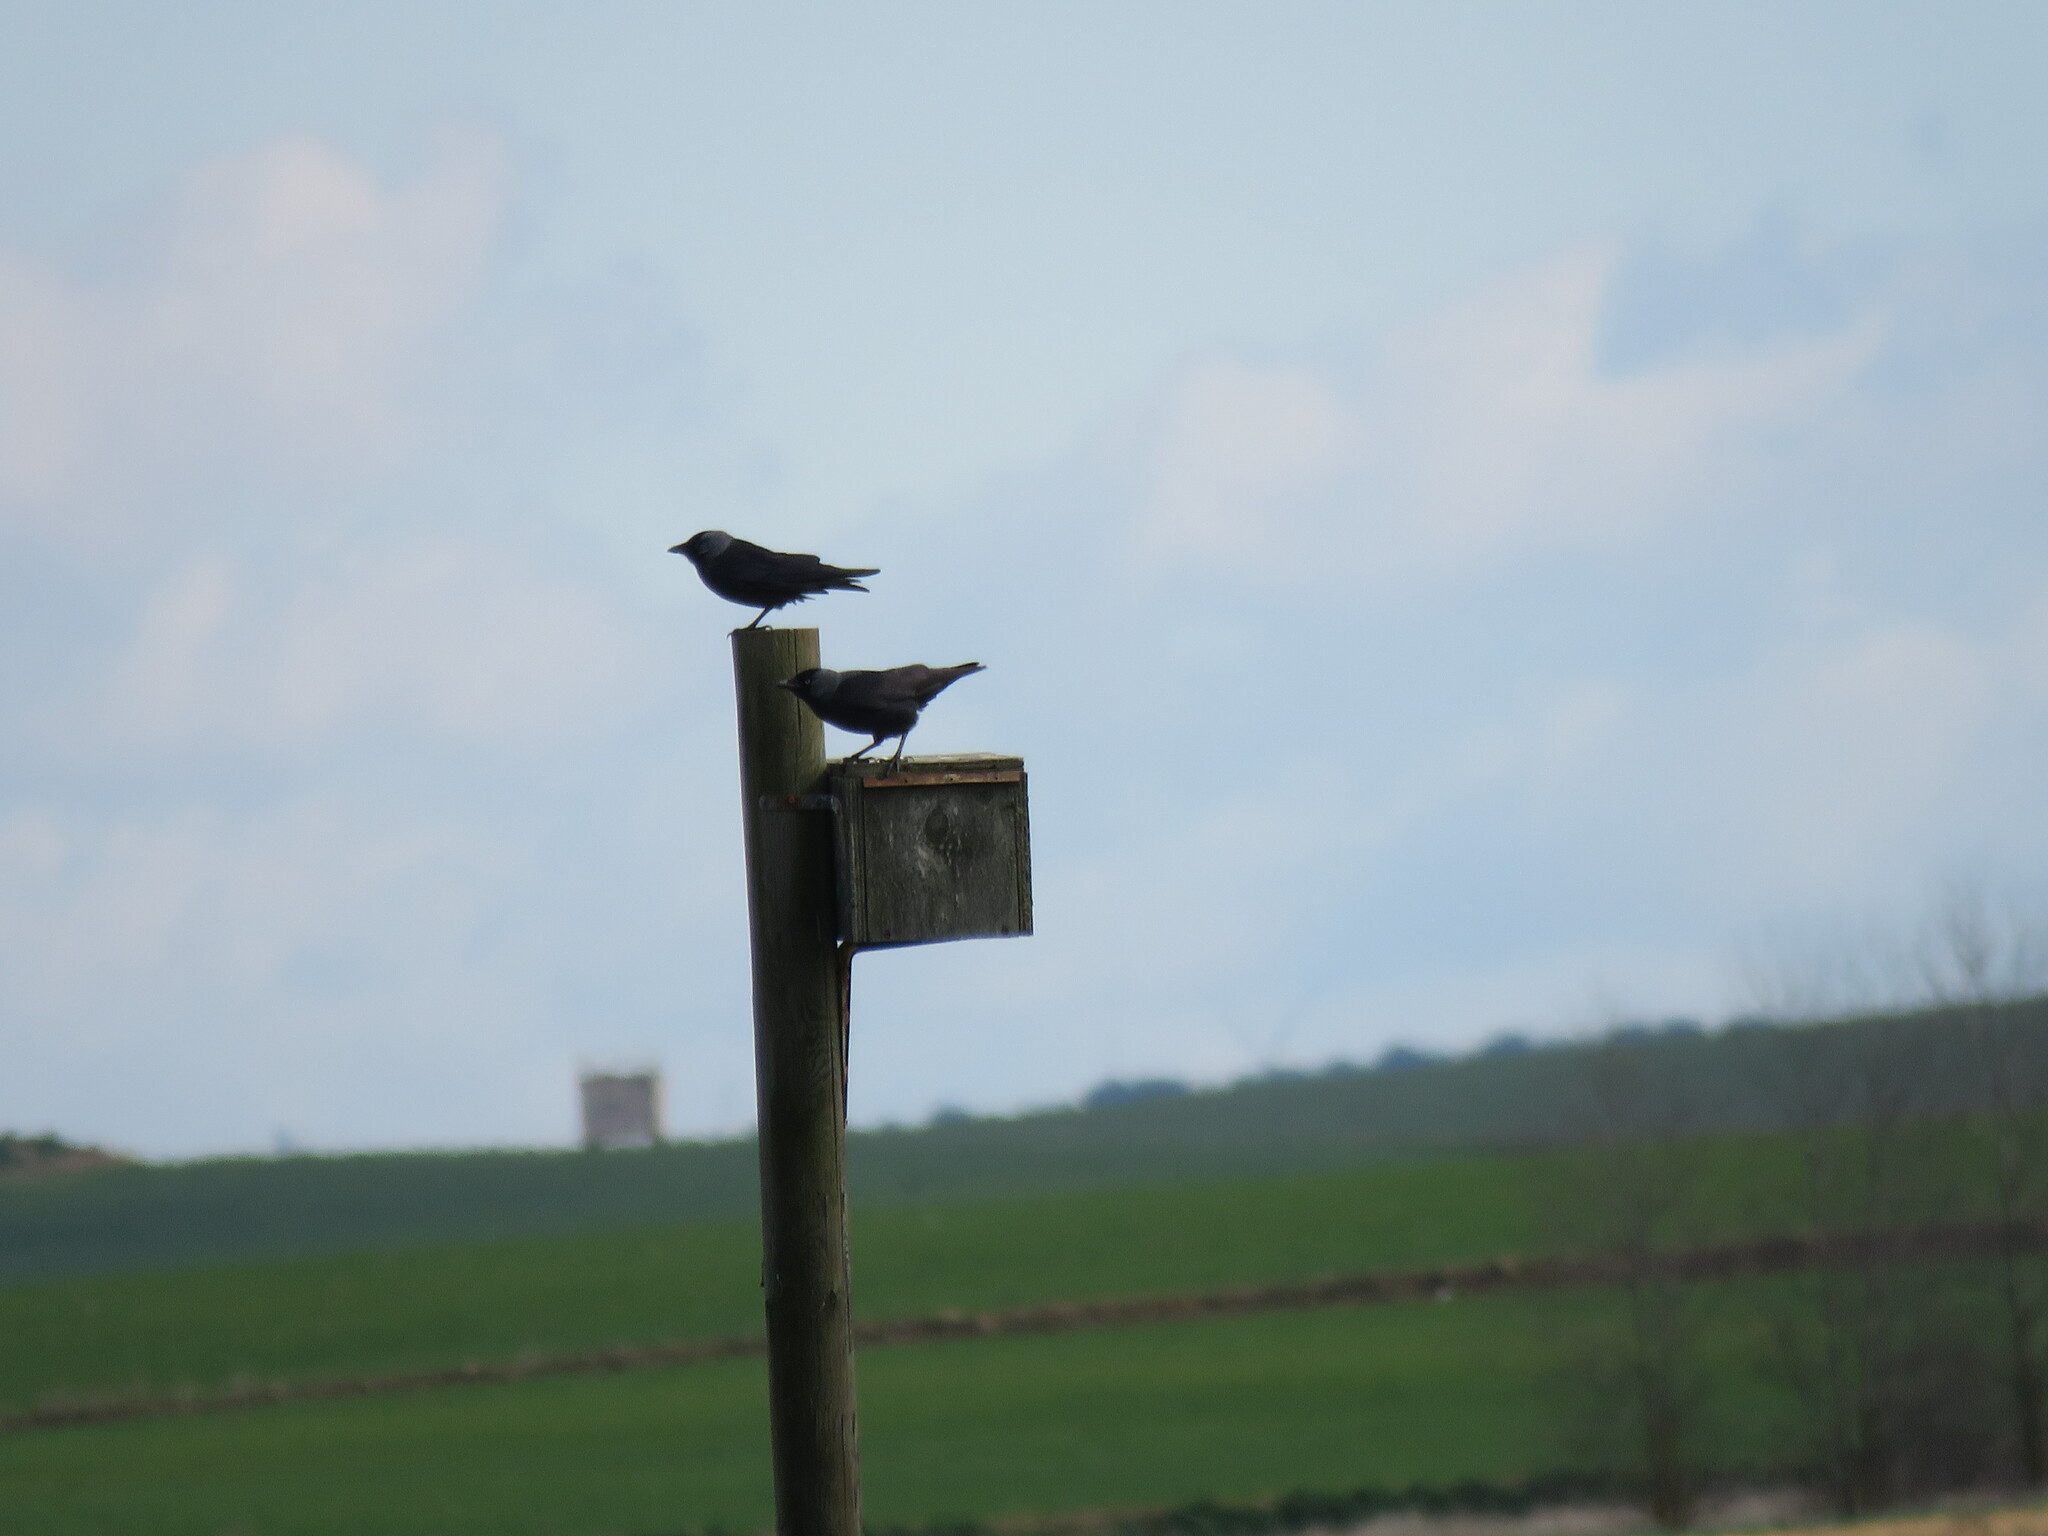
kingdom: Animalia
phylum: Chordata
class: Aves
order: Passeriformes
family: Corvidae
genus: Coloeus
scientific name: Coloeus monedula
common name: Western jackdaw
